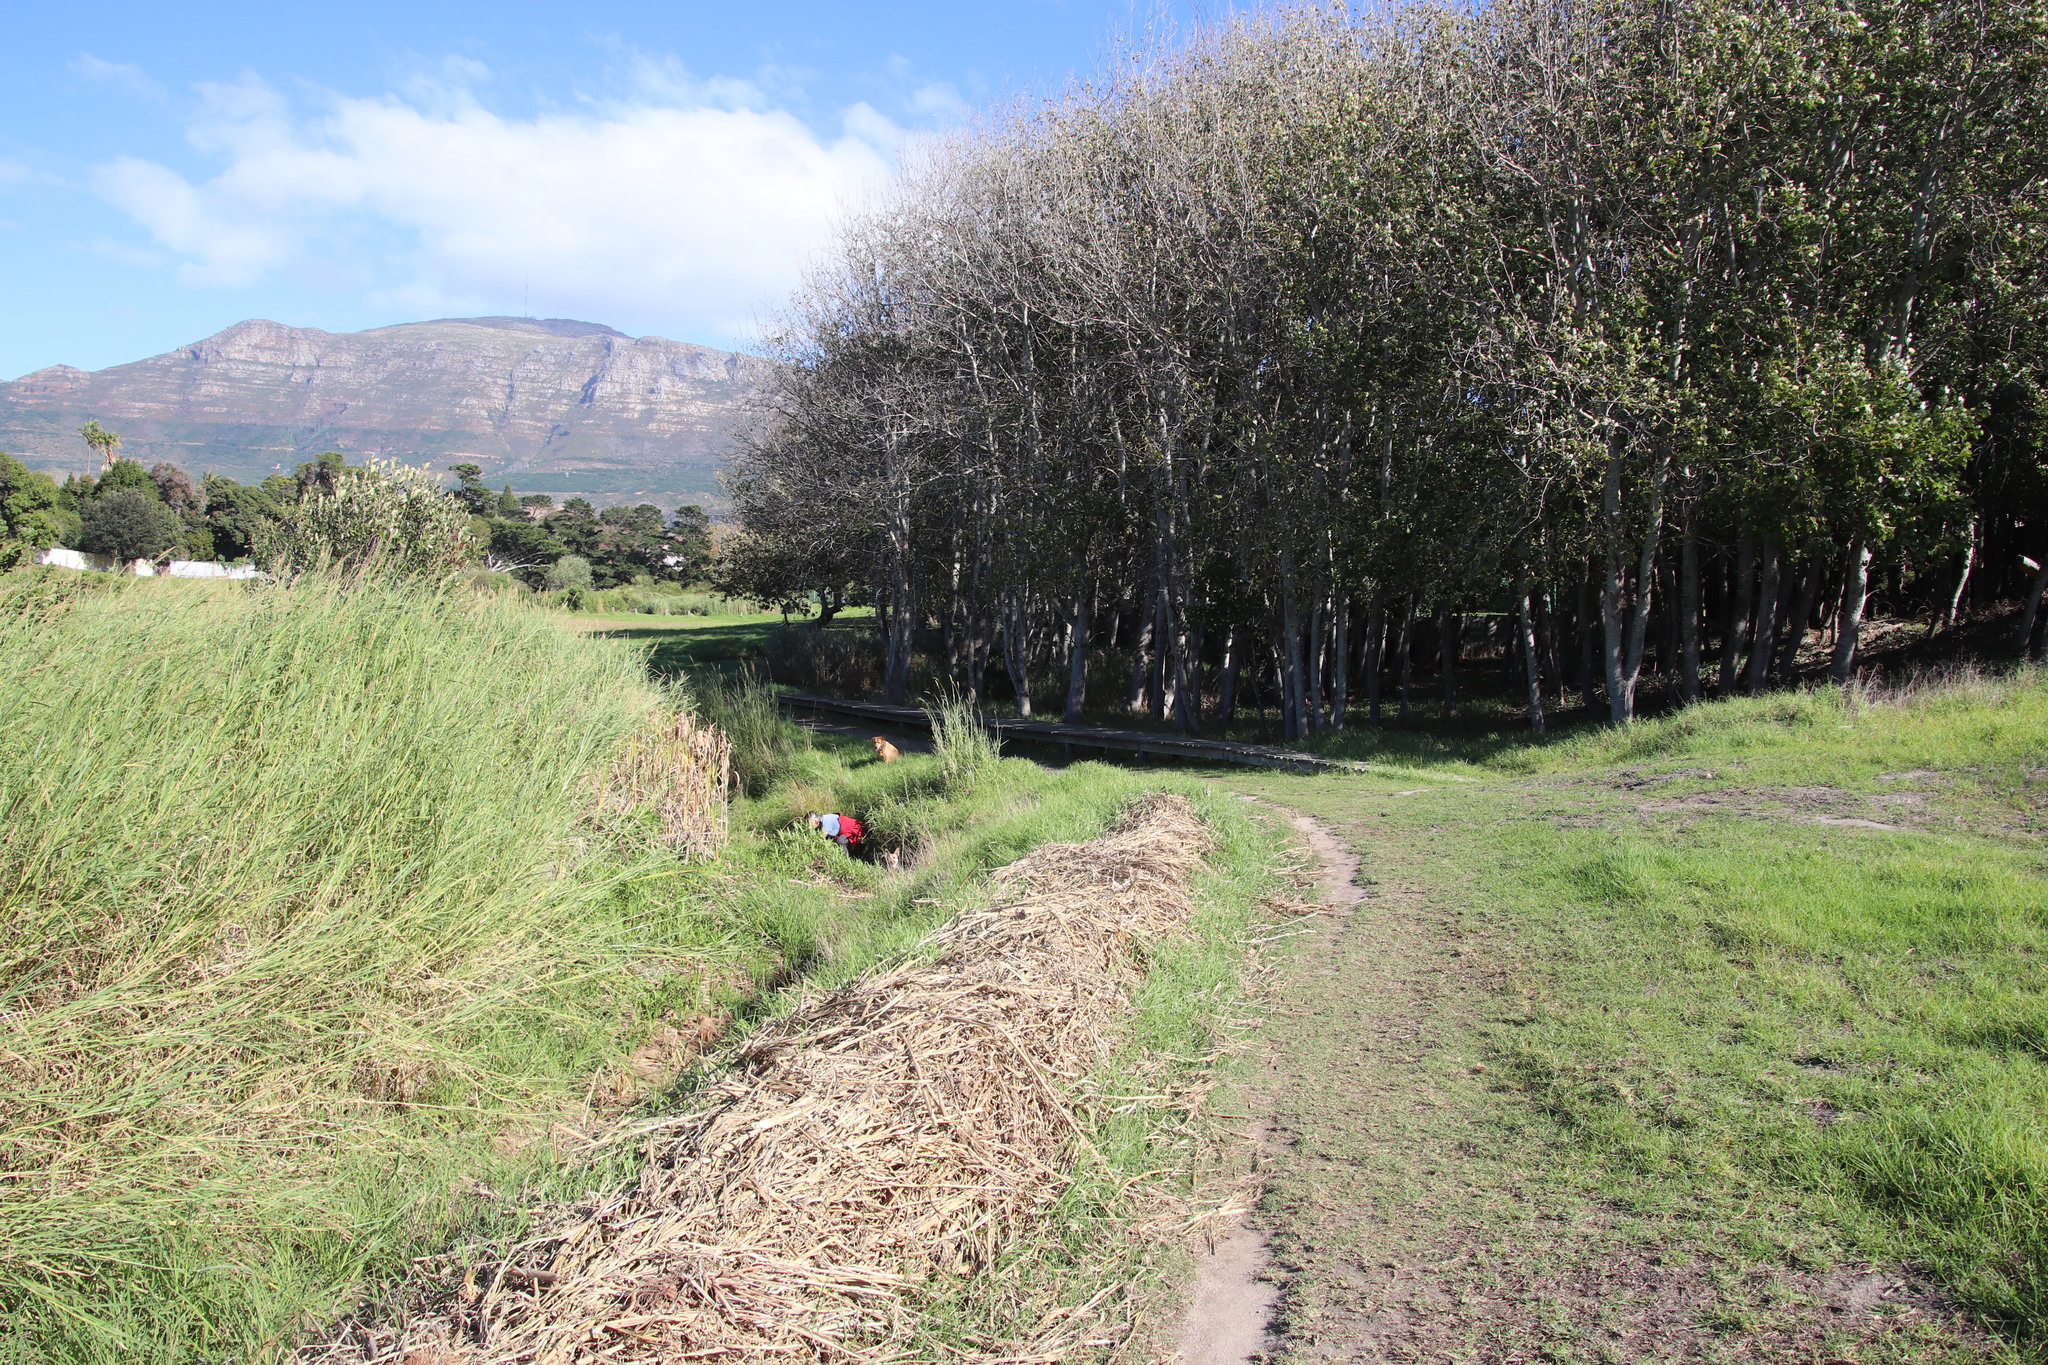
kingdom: Plantae
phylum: Tracheophyta
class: Magnoliopsida
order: Malpighiales
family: Salicaceae
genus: Populus
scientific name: Populus canescens
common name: Gray poplar
